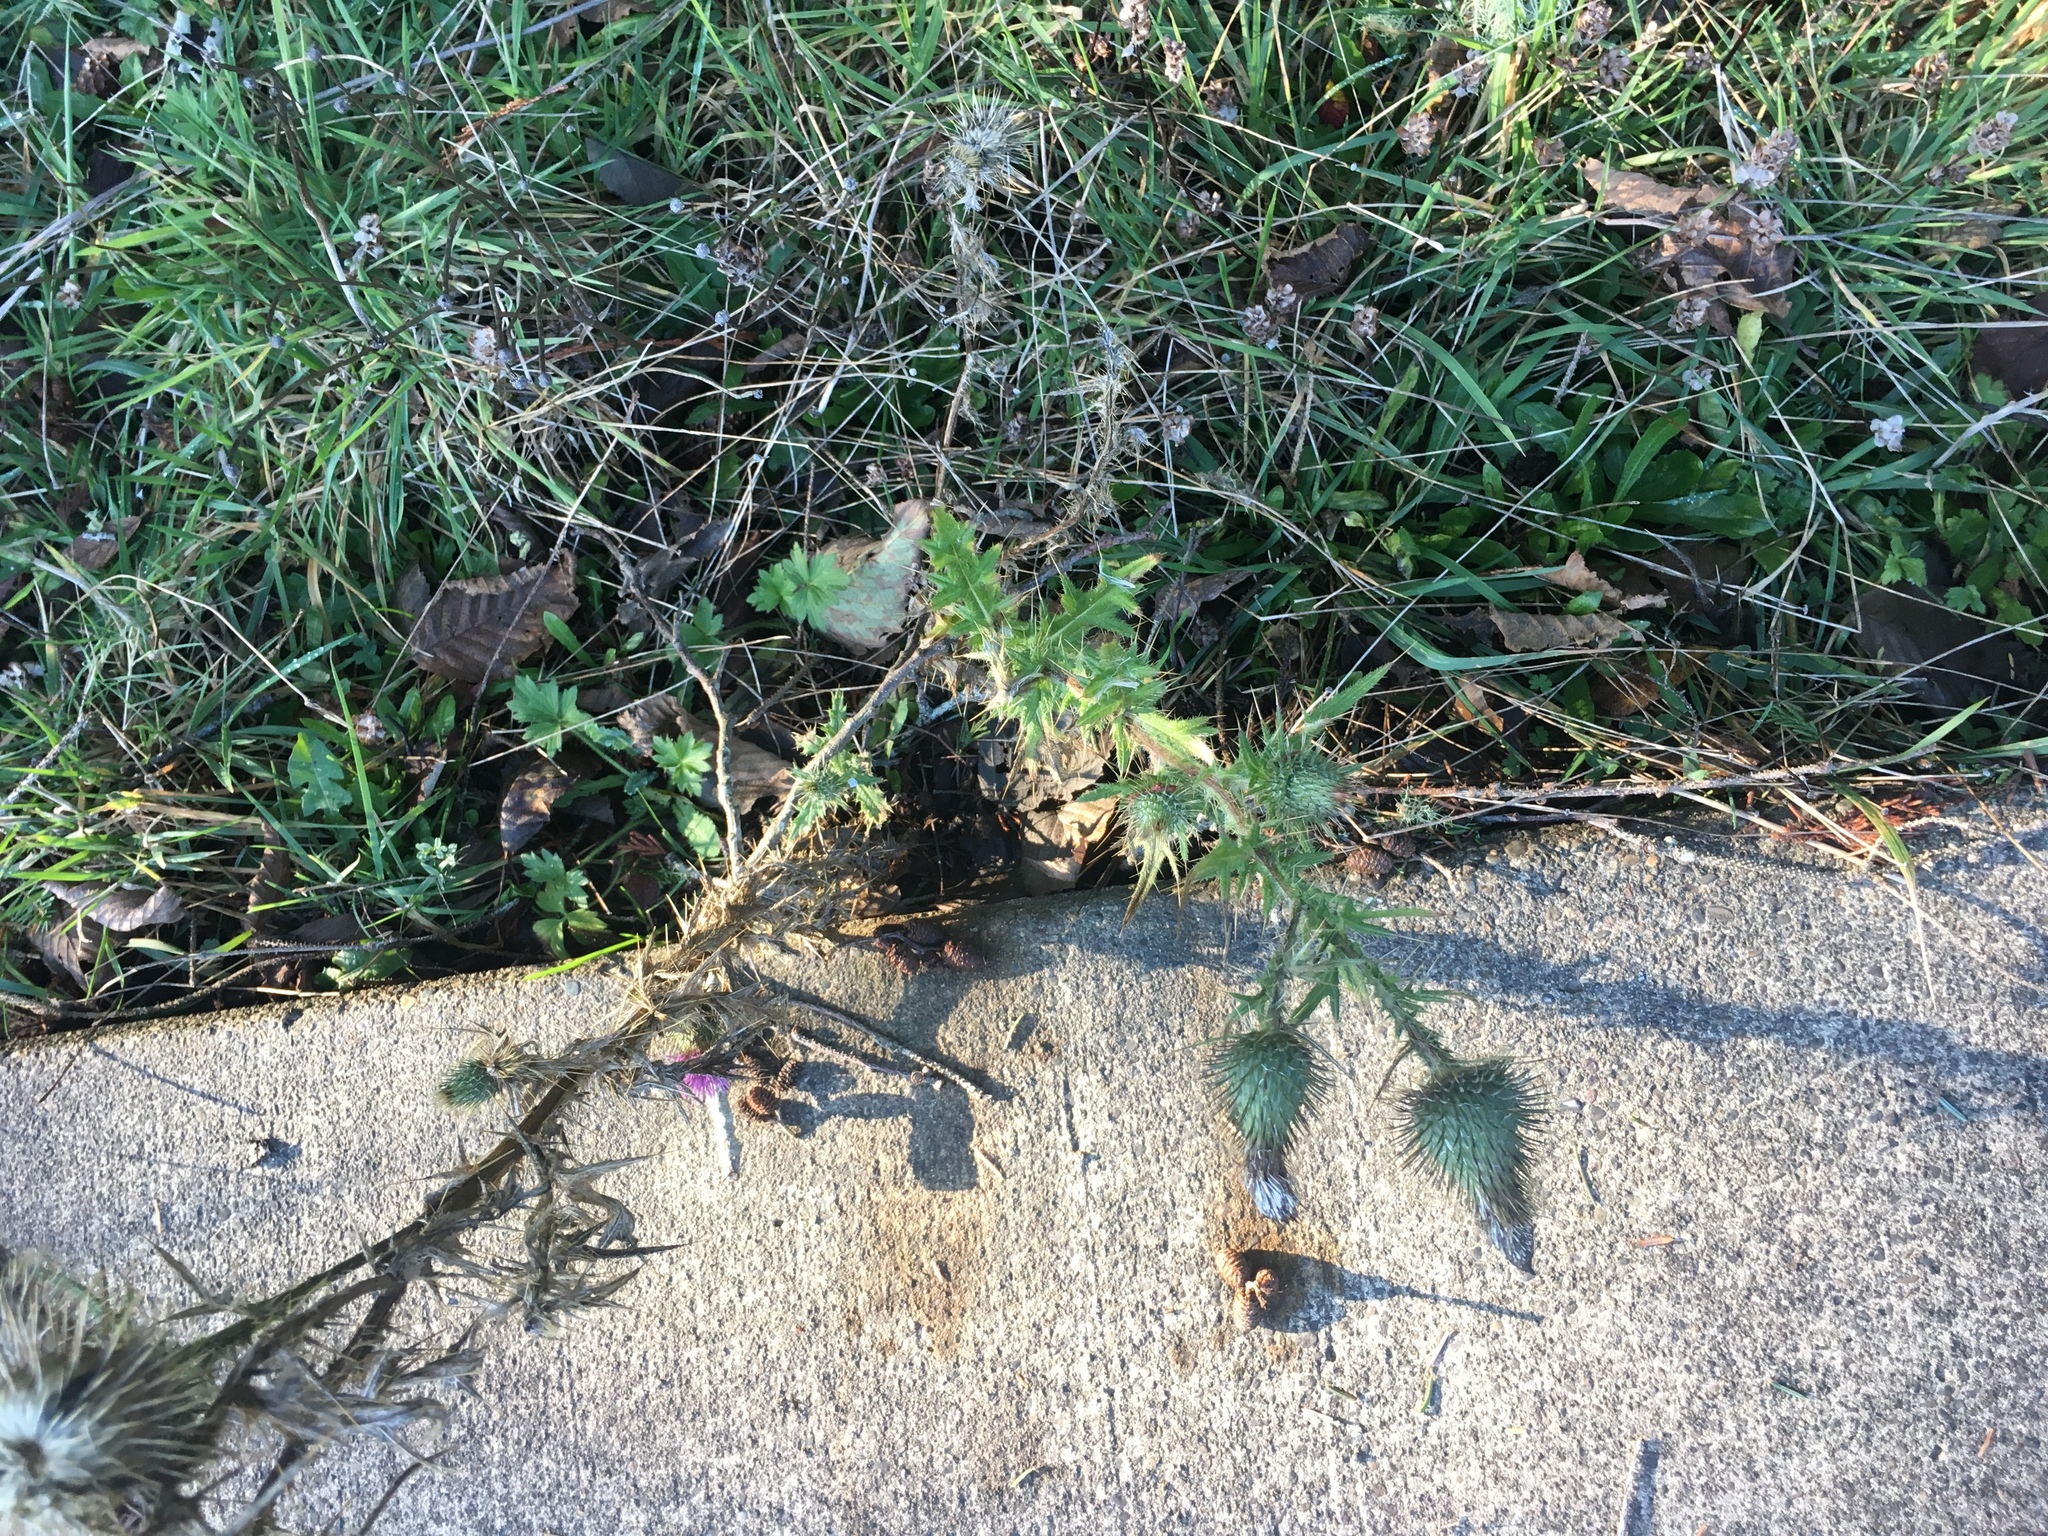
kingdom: Plantae
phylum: Tracheophyta
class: Magnoliopsida
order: Asterales
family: Asteraceae
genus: Cirsium
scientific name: Cirsium vulgare
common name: Bull thistle
